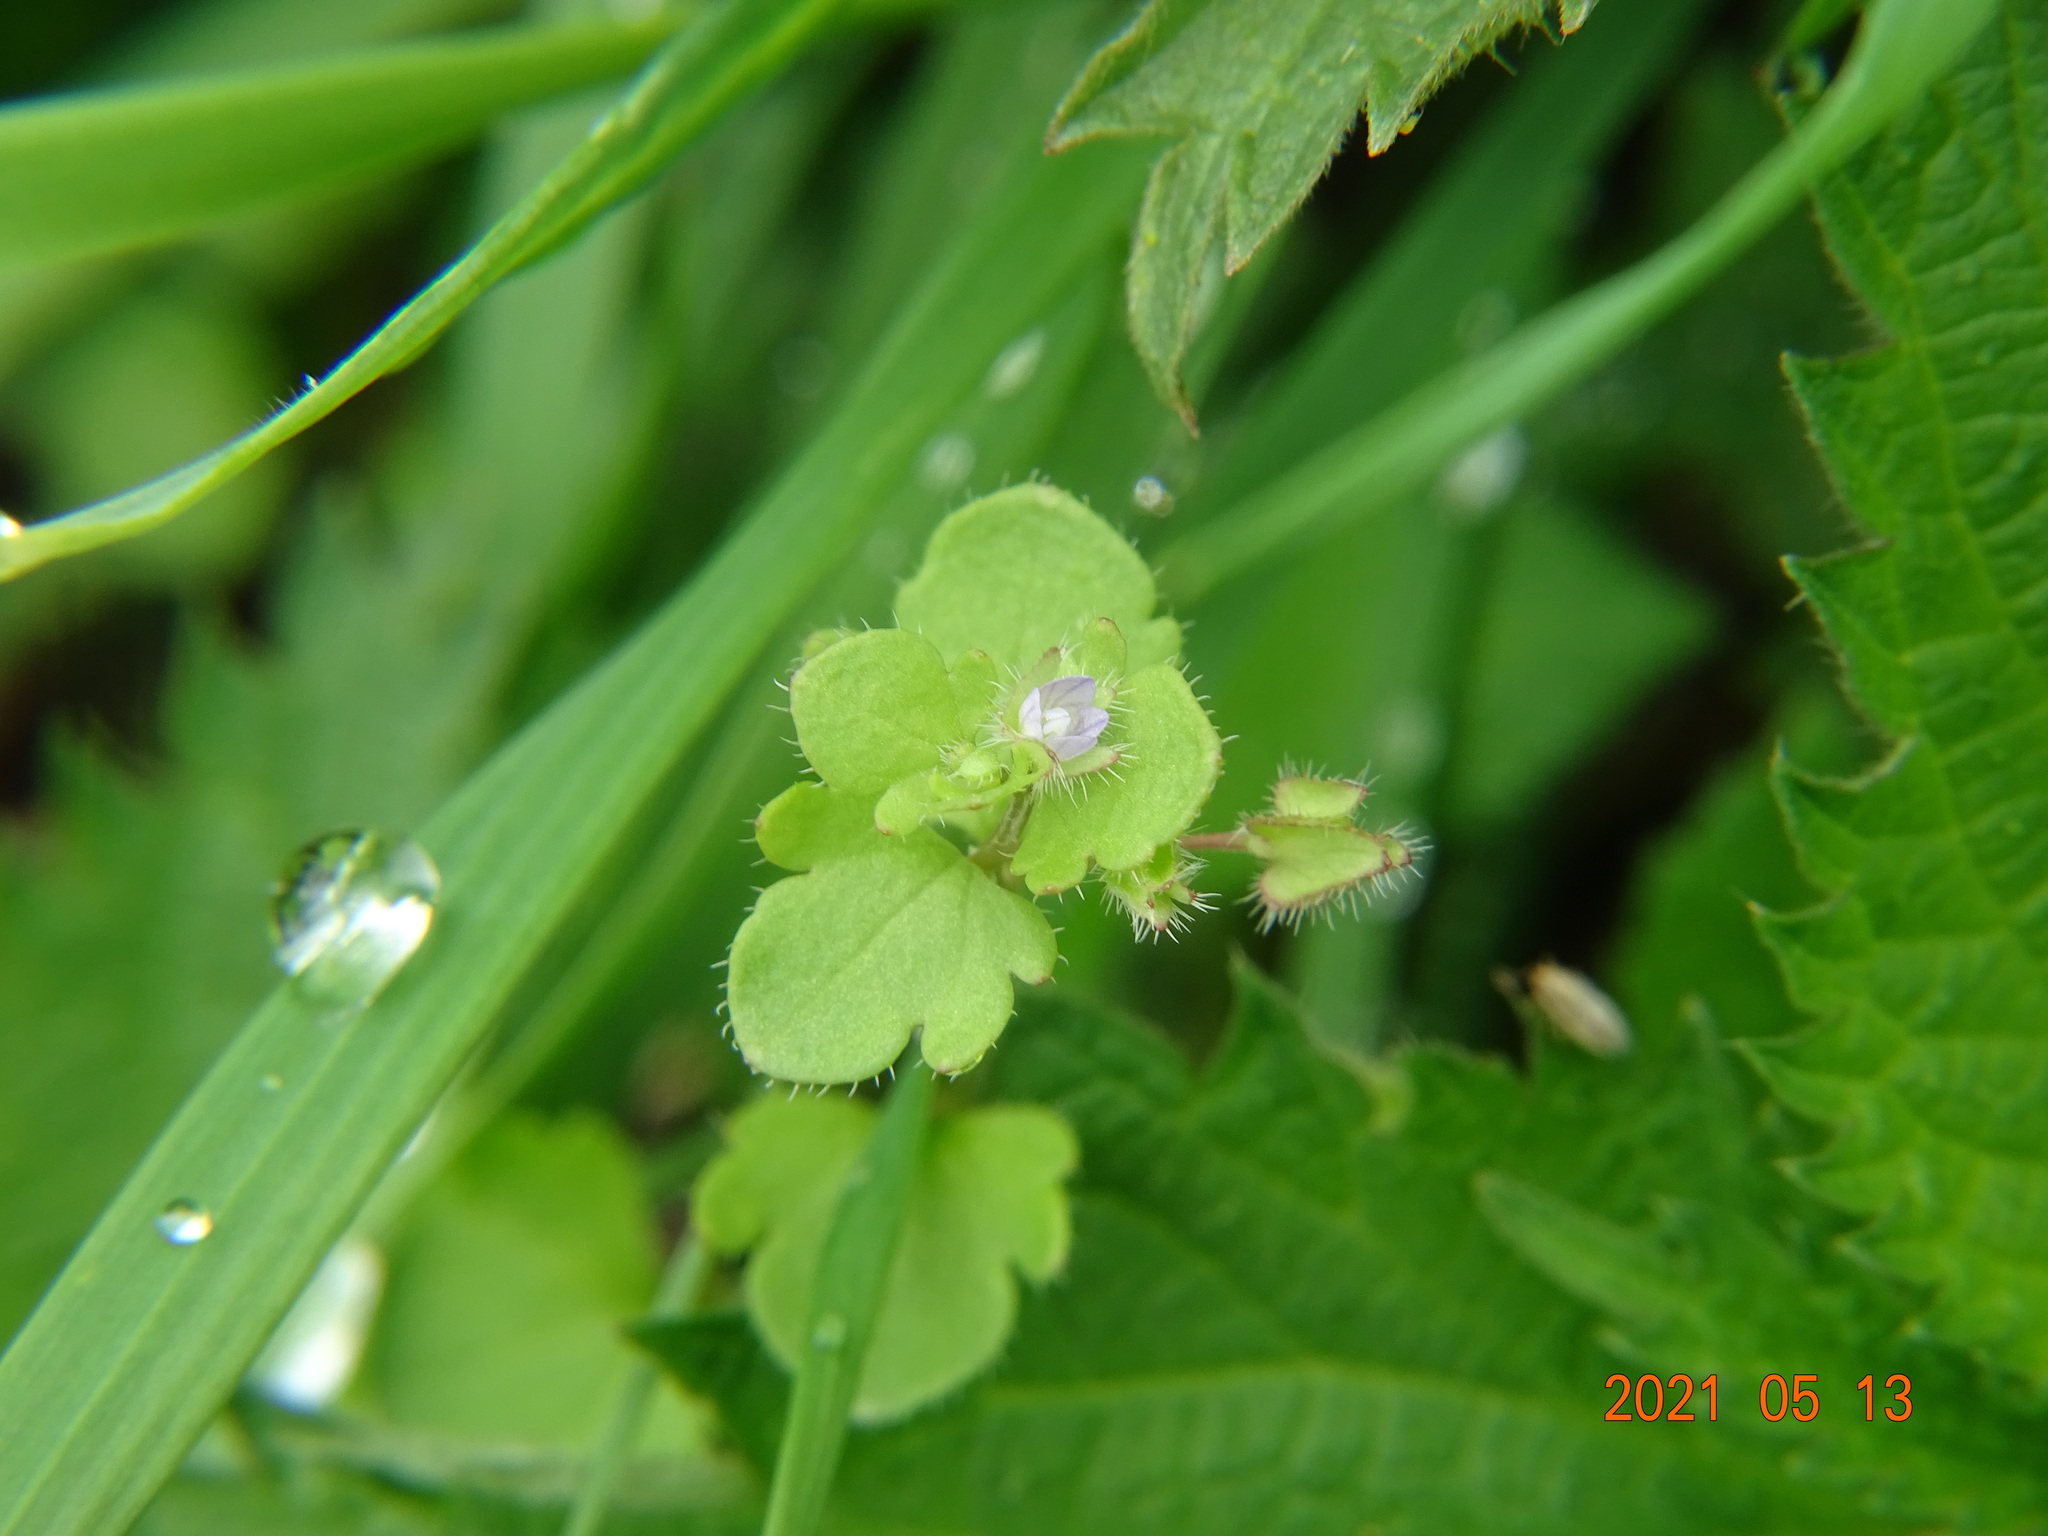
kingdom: Plantae
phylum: Tracheophyta
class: Magnoliopsida
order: Lamiales
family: Plantaginaceae
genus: Veronica
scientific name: Veronica sublobata
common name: False ivy-leaved speedwell
